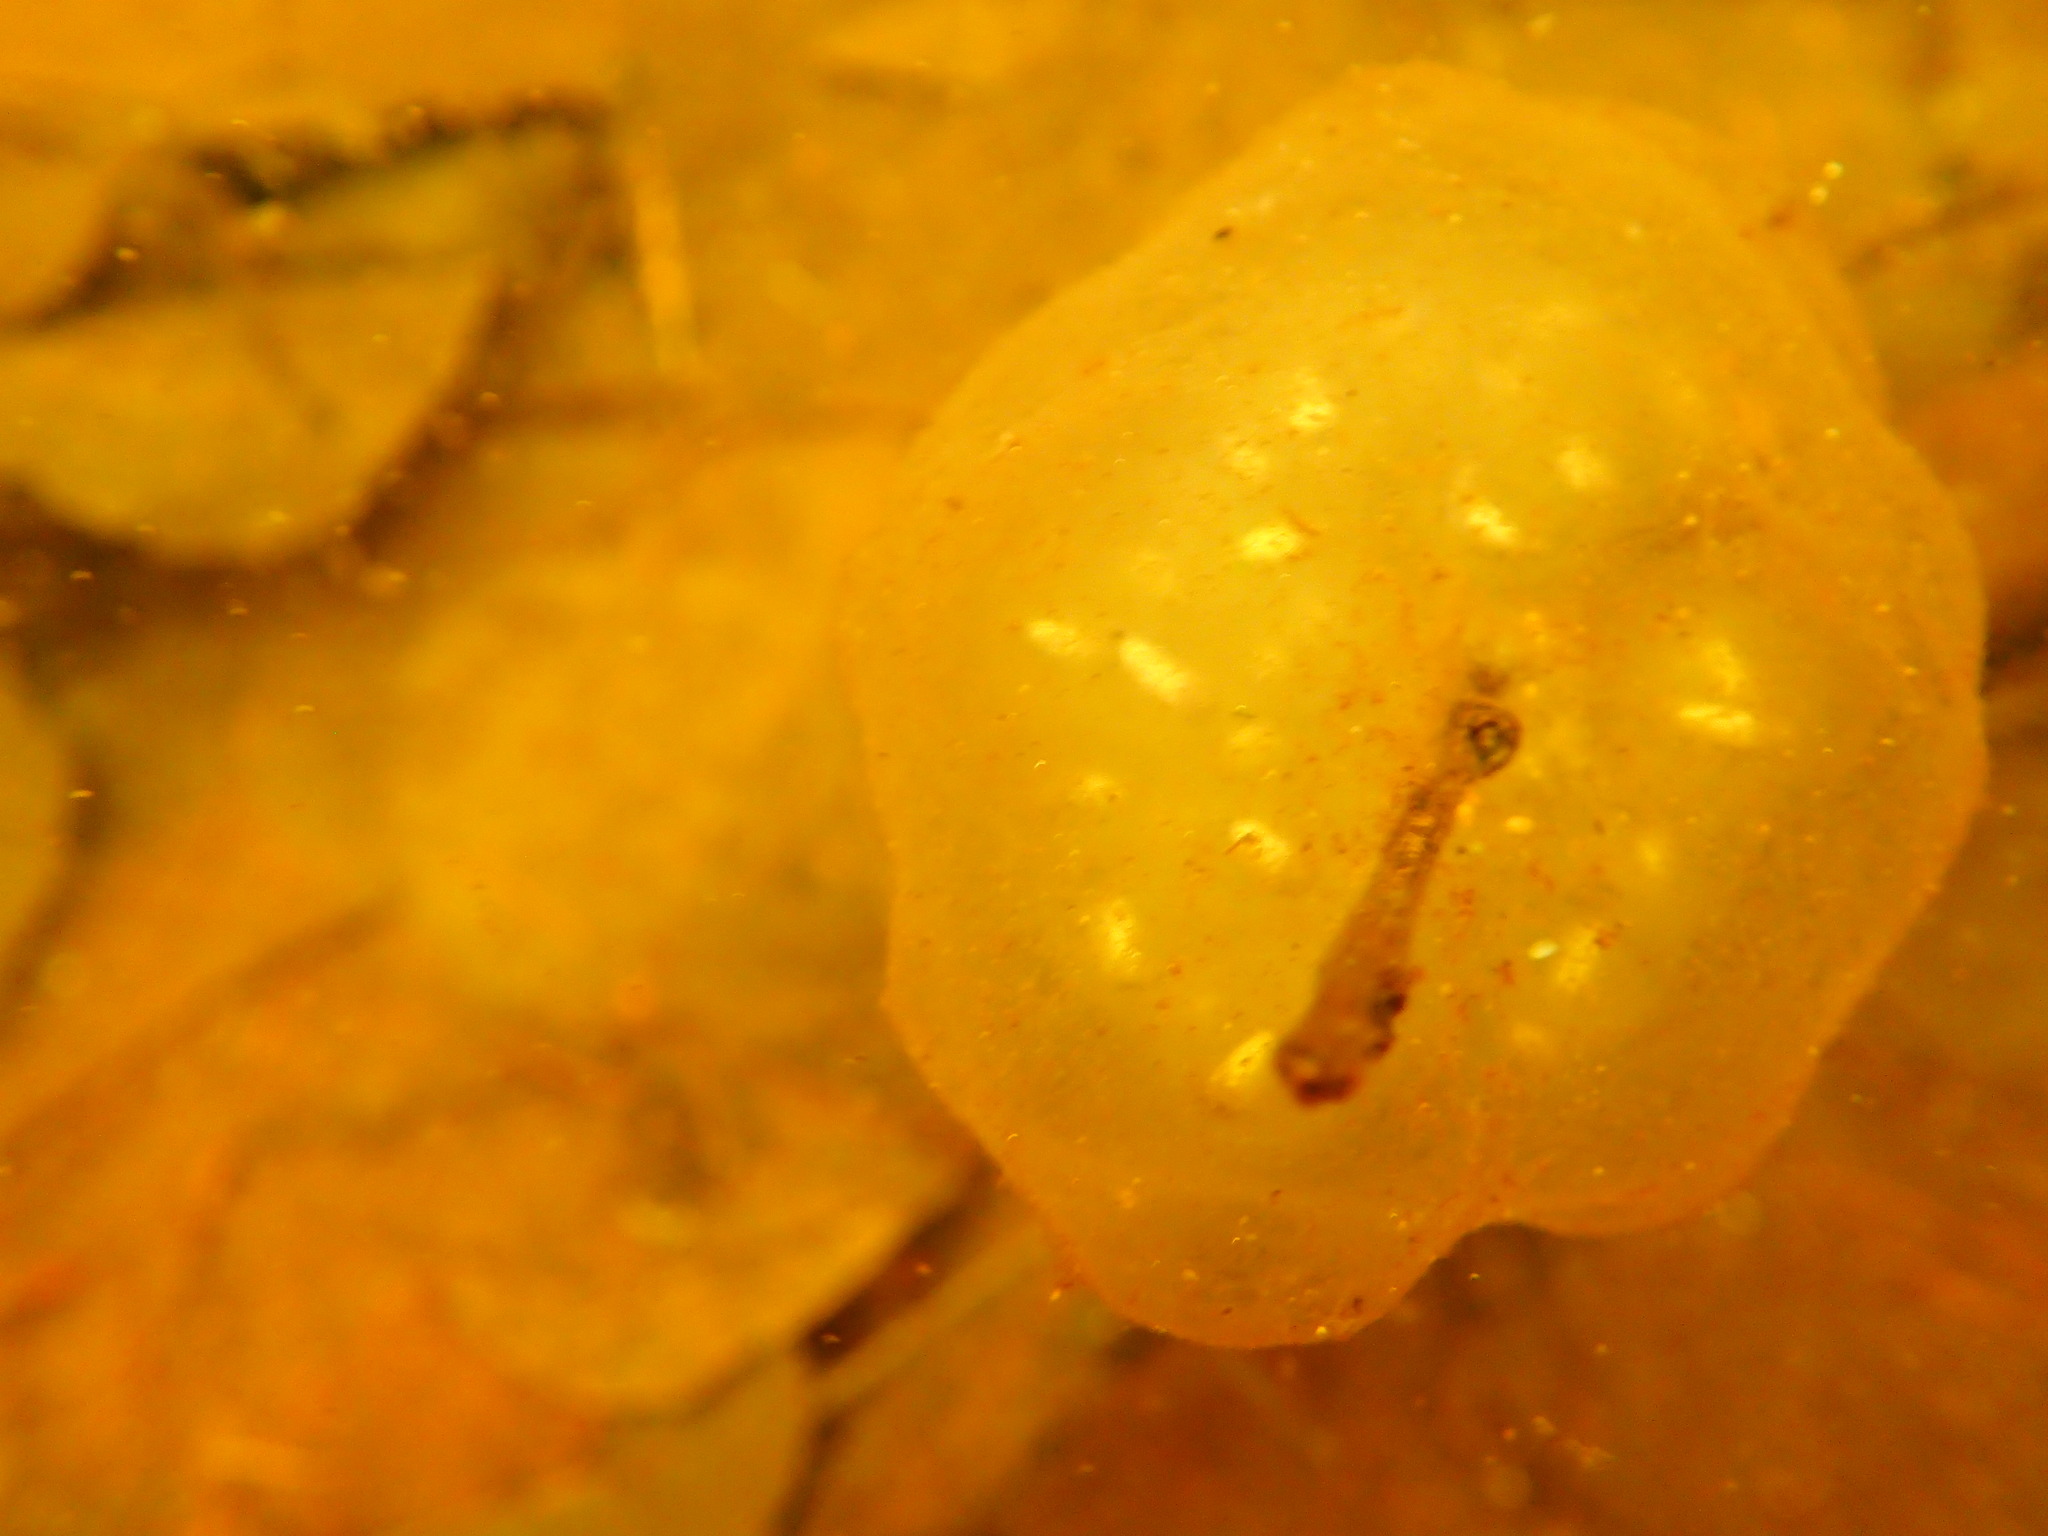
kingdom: Animalia
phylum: Chordata
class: Amphibia
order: Caudata
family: Ambystomatidae
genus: Ambystoma
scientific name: Ambystoma maculatum
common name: Spotted salamander
